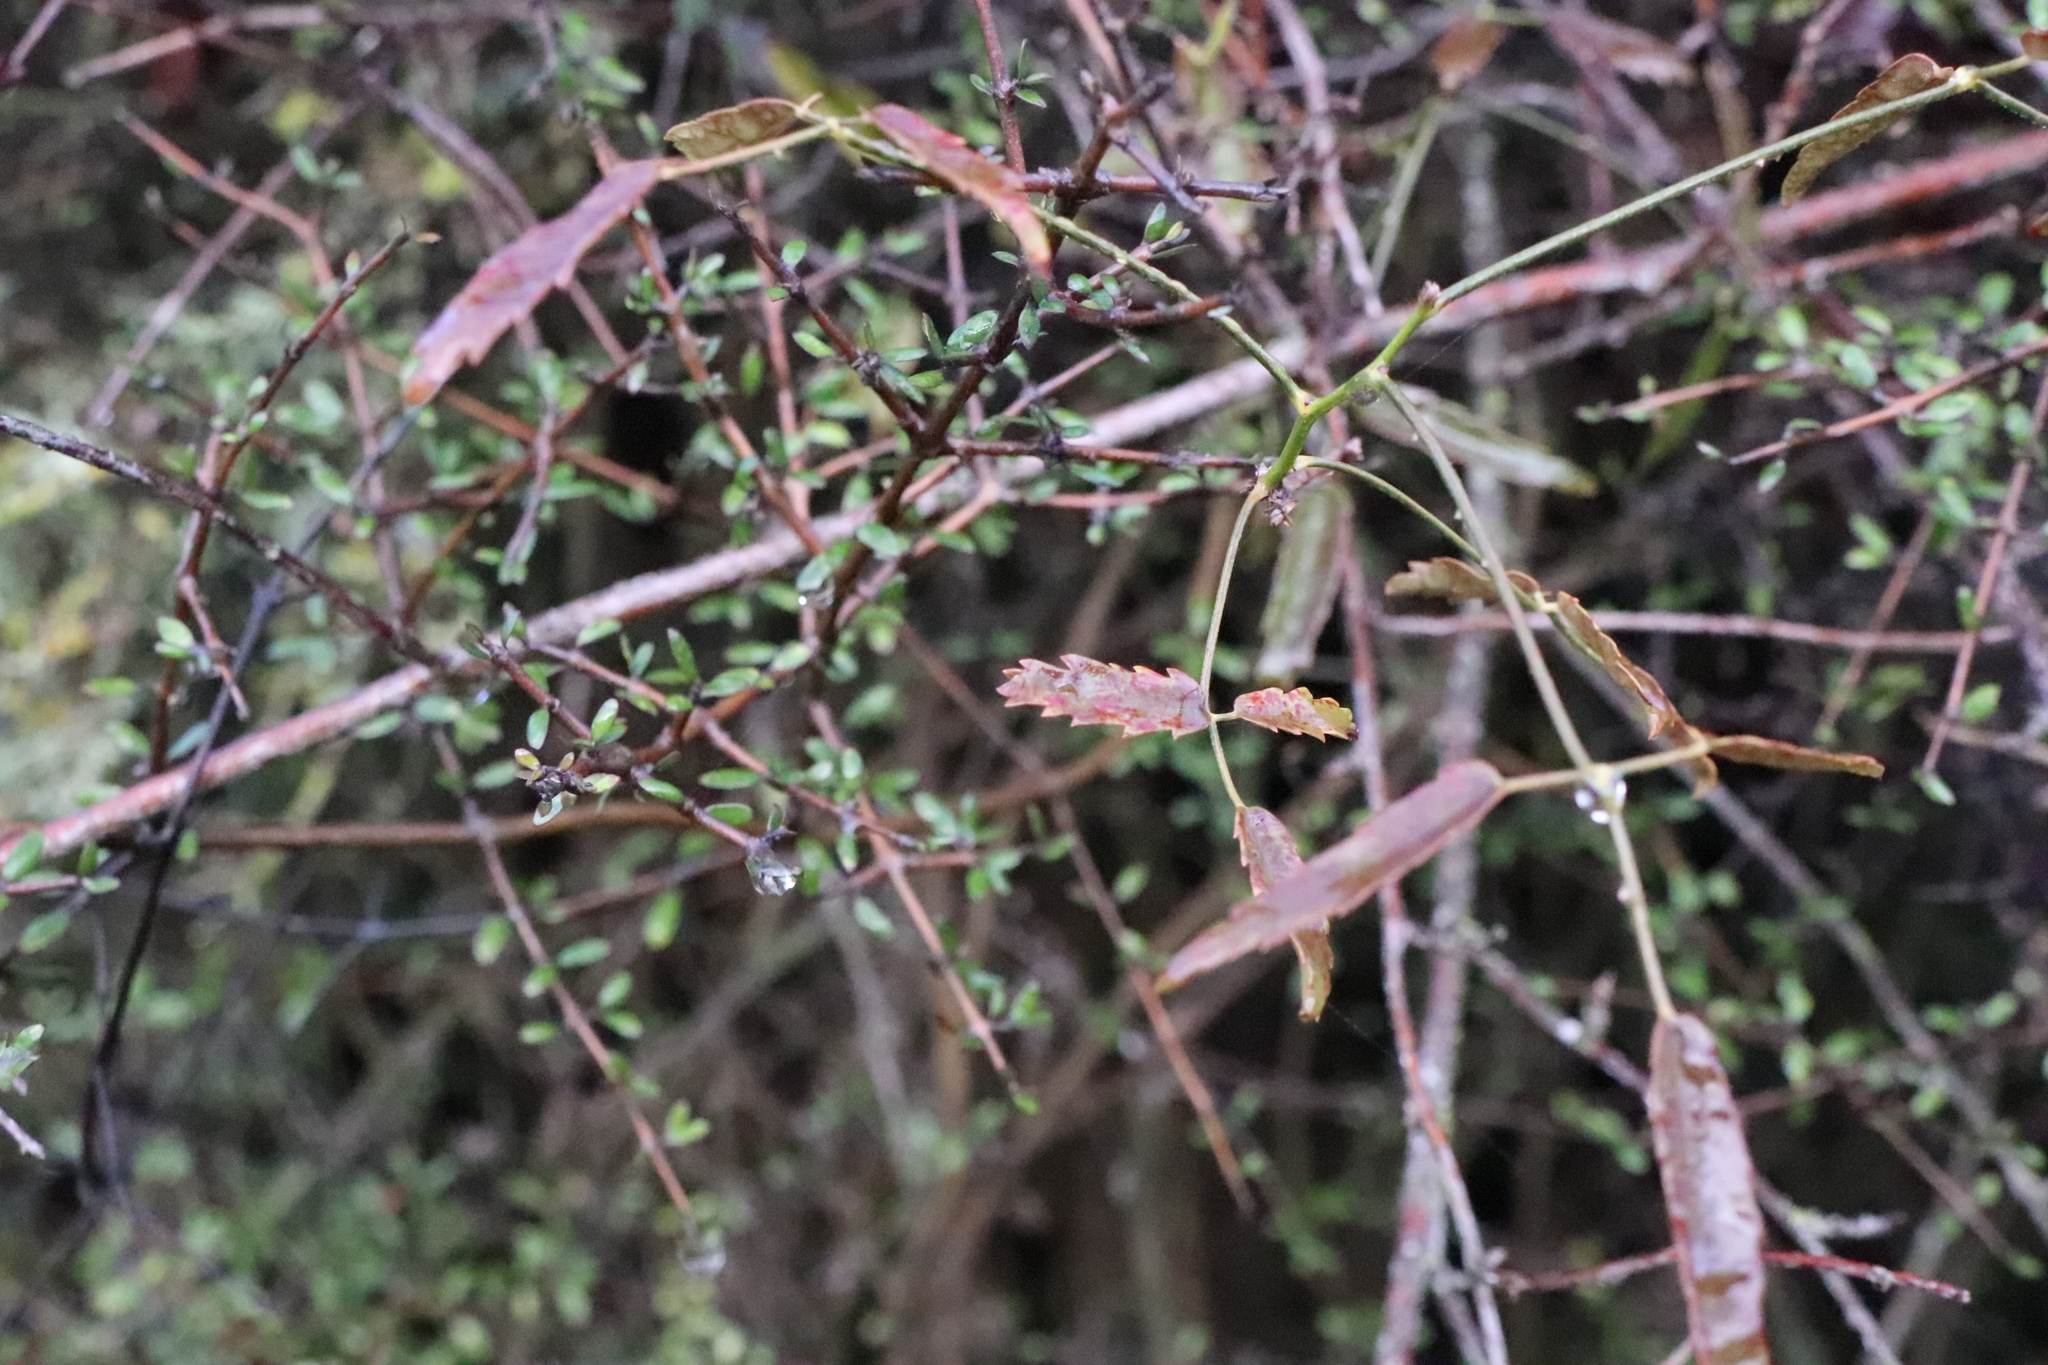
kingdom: Plantae
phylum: Tracheophyta
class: Magnoliopsida
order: Rosales
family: Rosaceae
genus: Rubus
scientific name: Rubus schmidelioides
